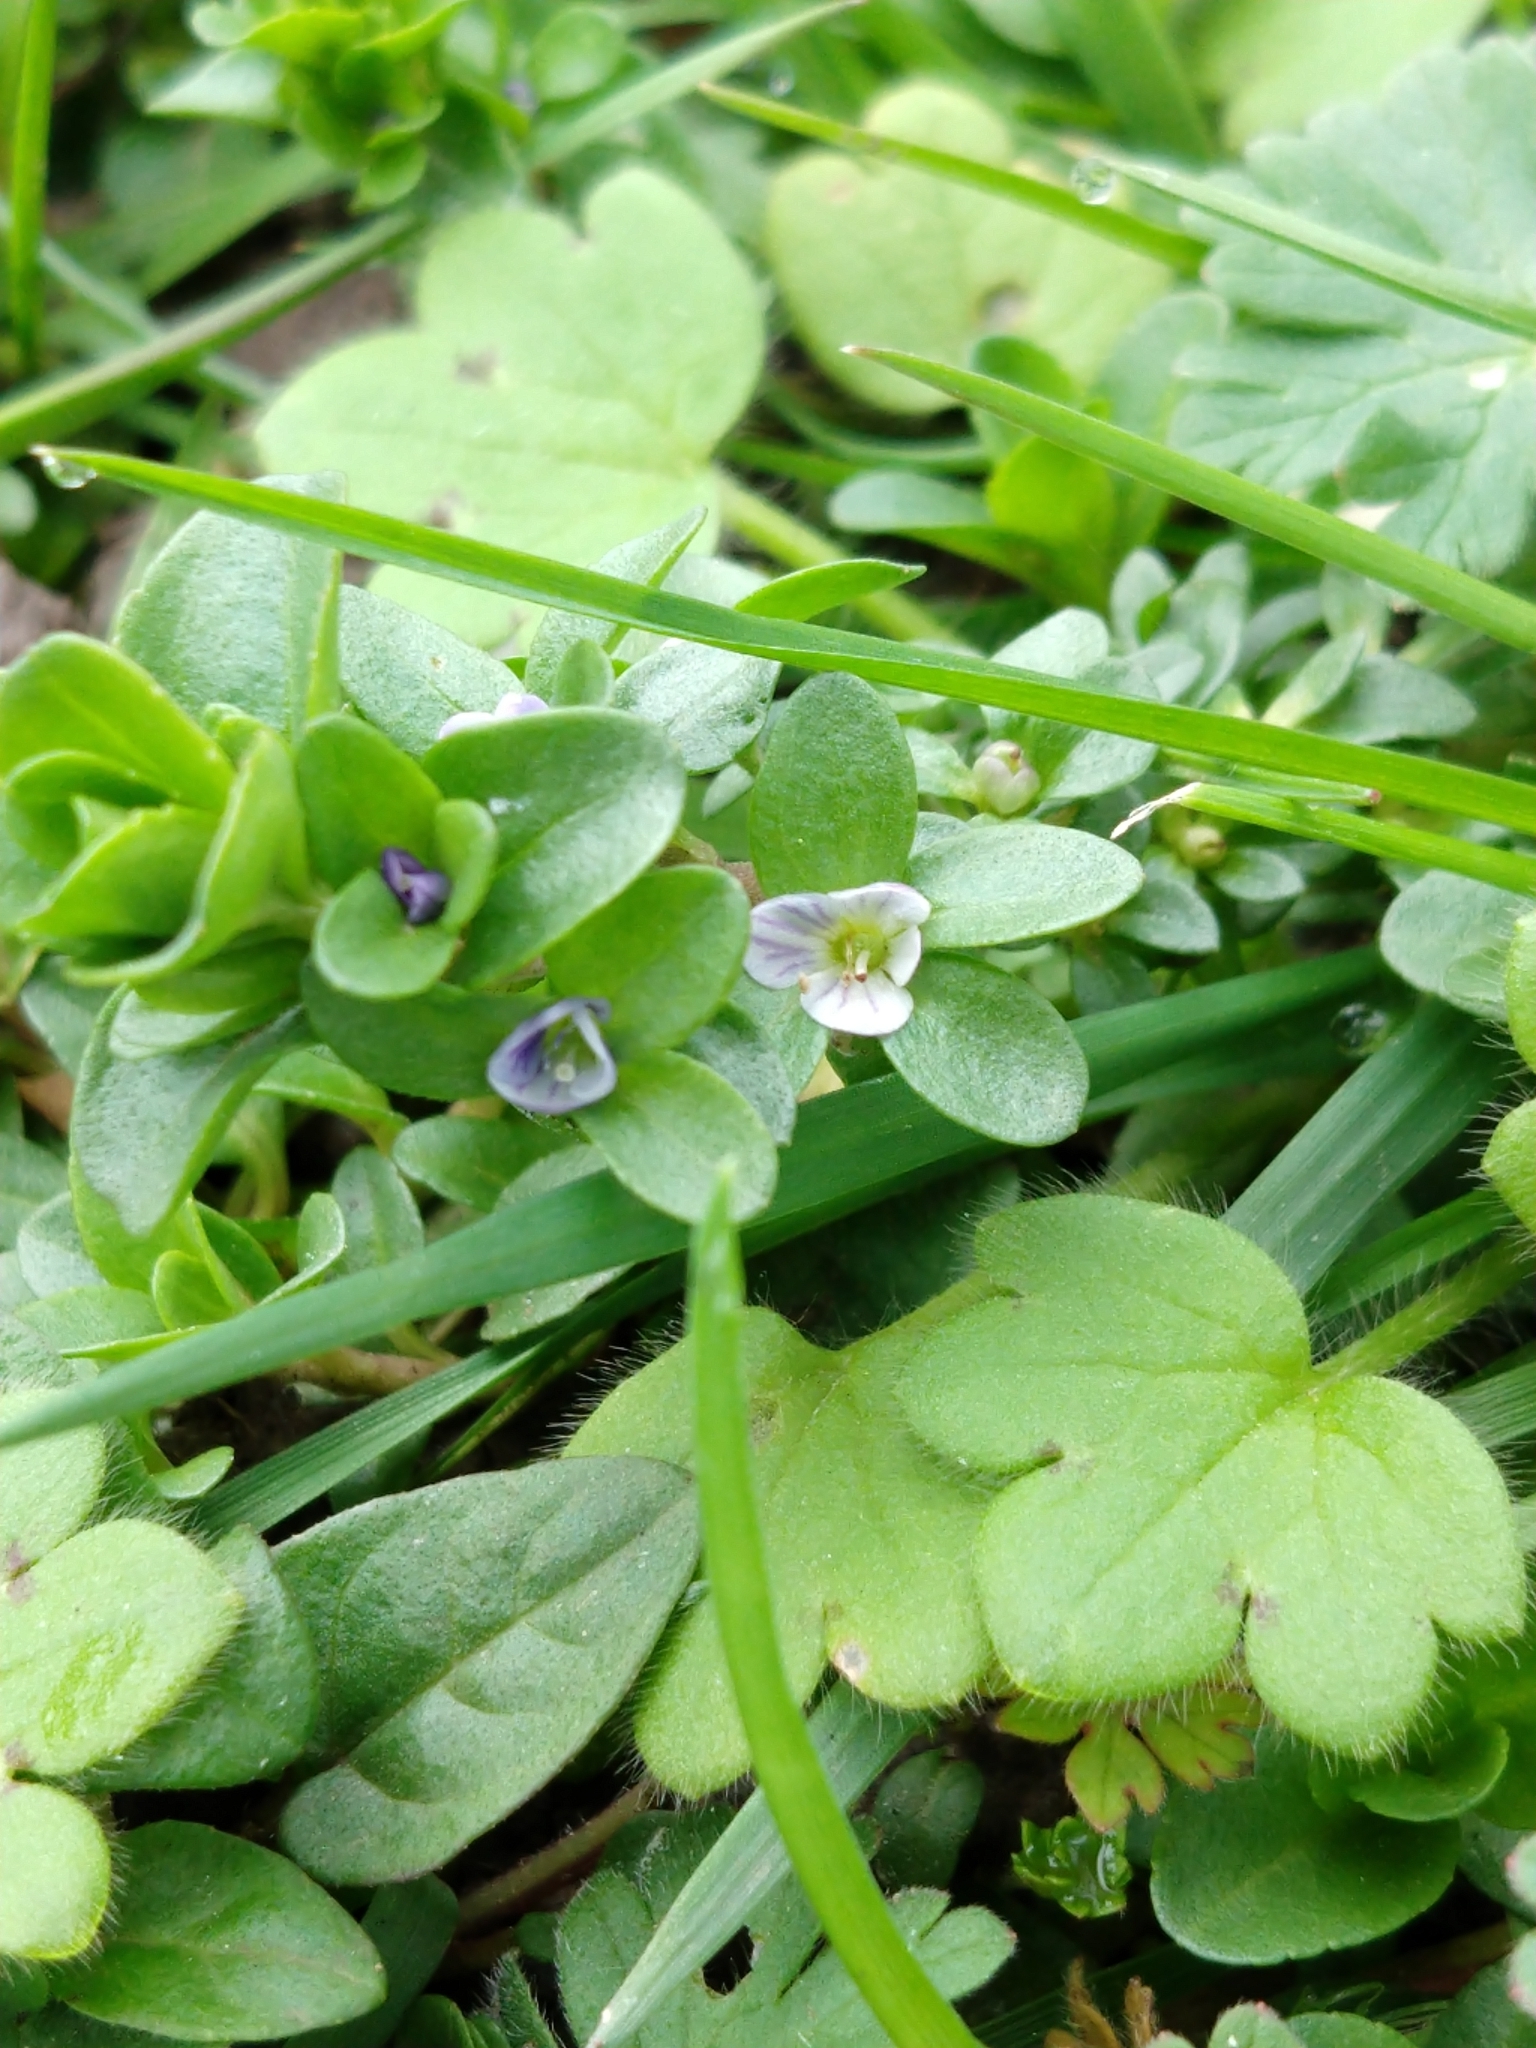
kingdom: Plantae
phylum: Tracheophyta
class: Magnoliopsida
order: Lamiales
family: Plantaginaceae
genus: Veronica
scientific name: Veronica serpyllifolia
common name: Thyme-leaved speedwell
